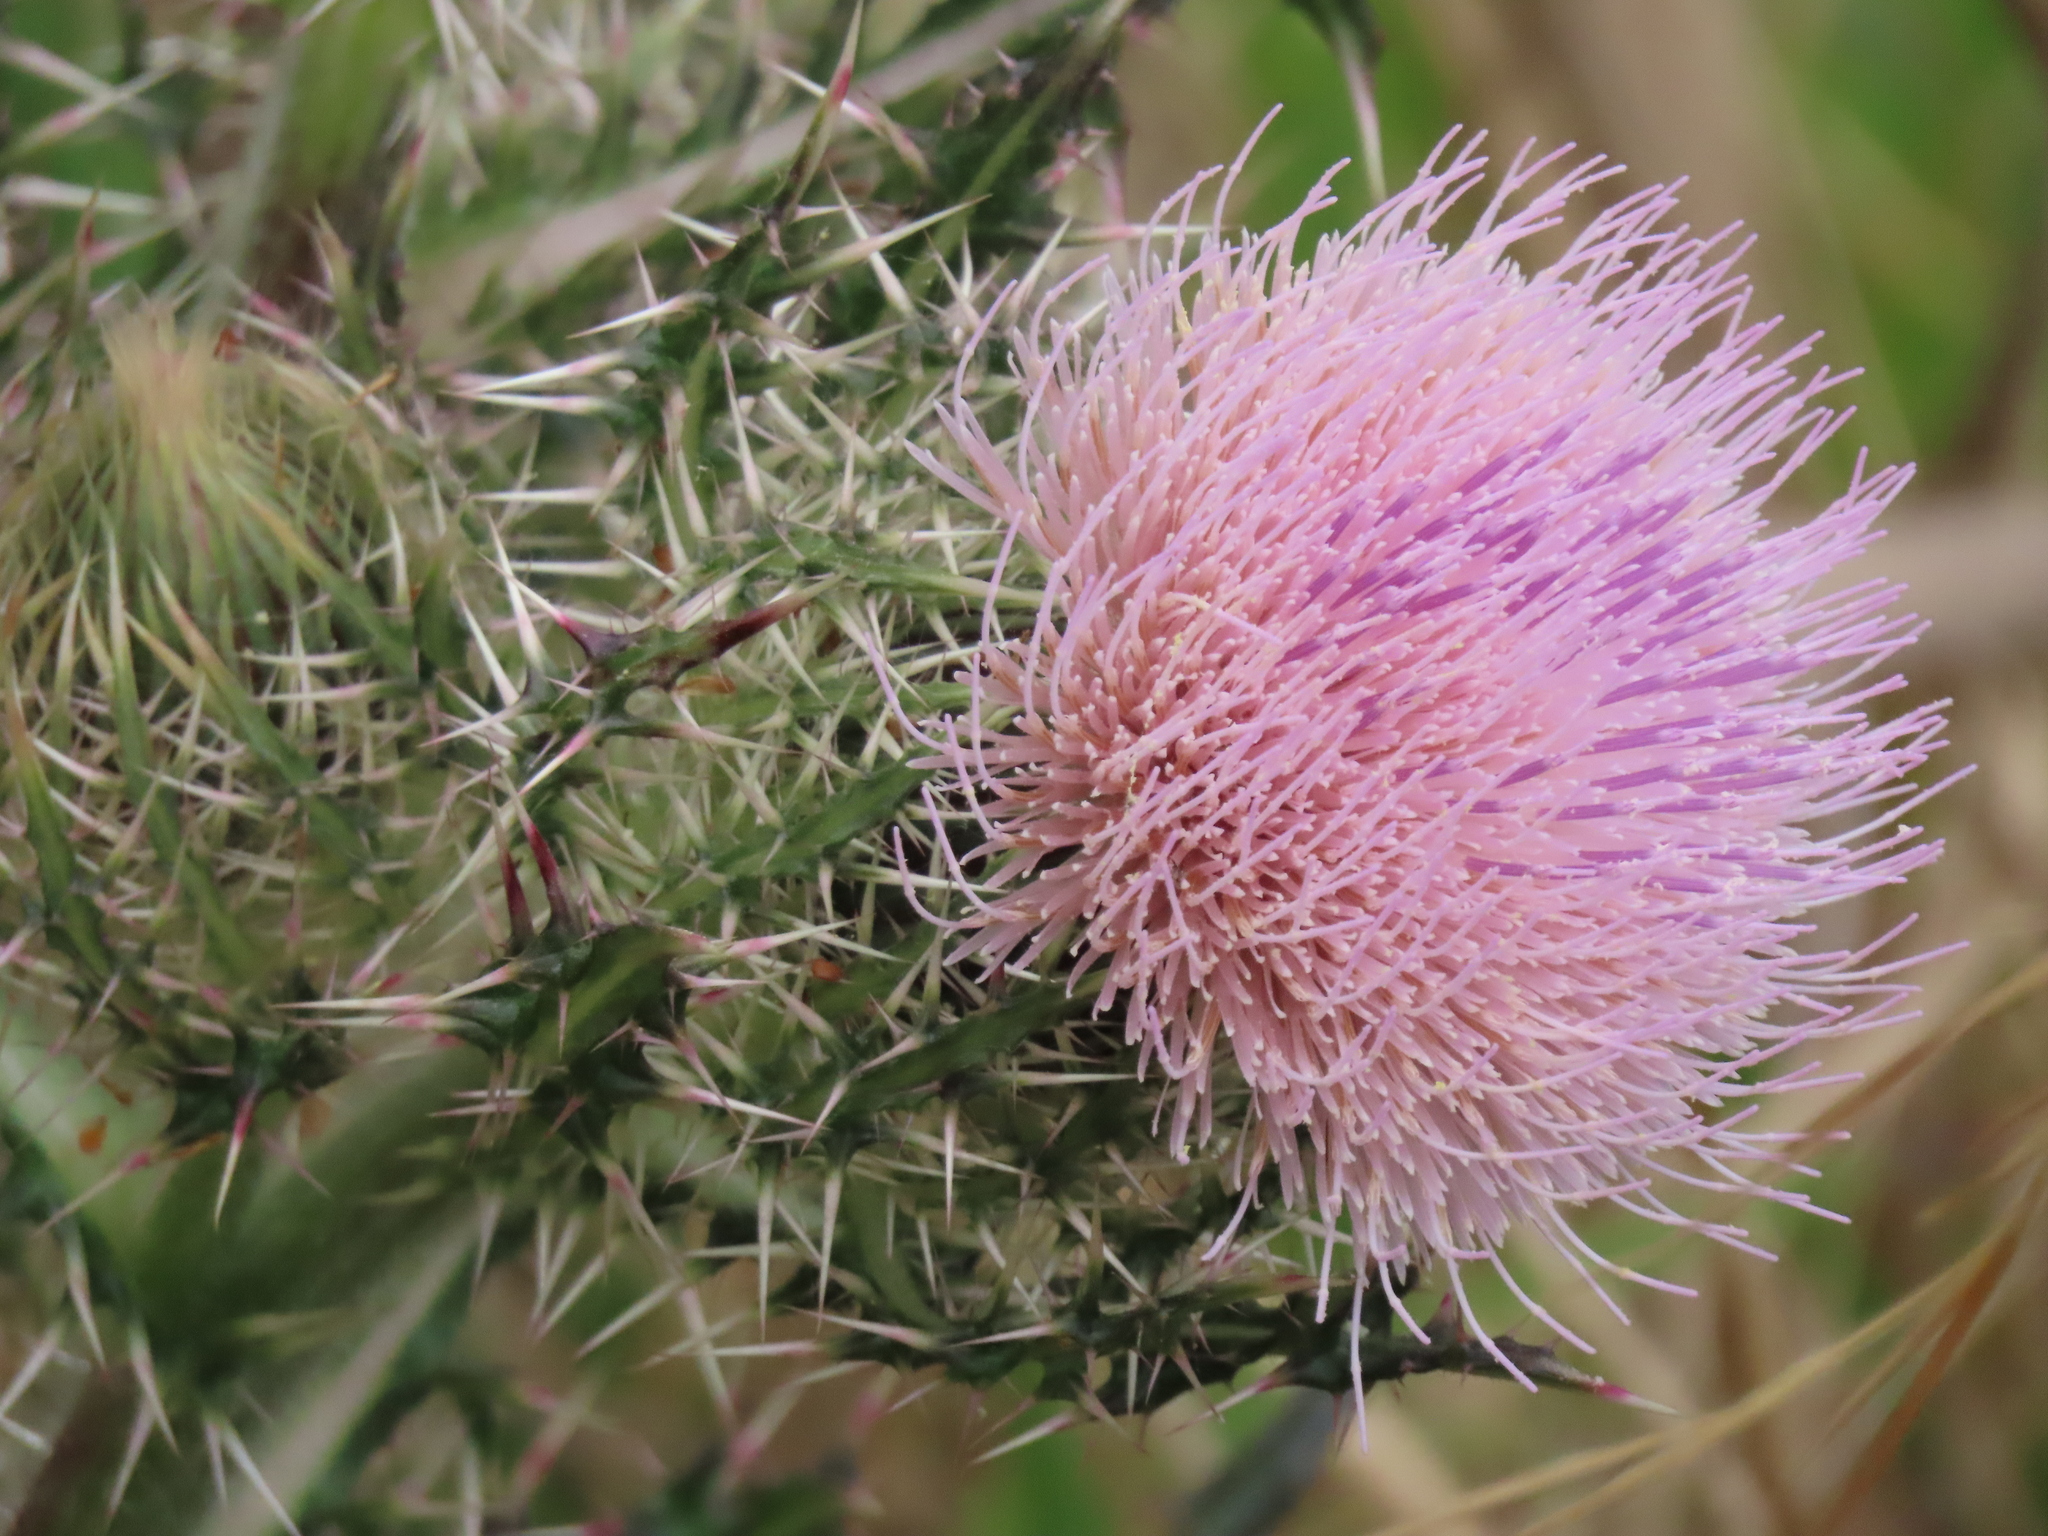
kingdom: Plantae
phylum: Tracheophyta
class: Magnoliopsida
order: Asterales
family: Asteraceae
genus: Cirsium
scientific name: Cirsium horridulum
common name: Bristly thistle
